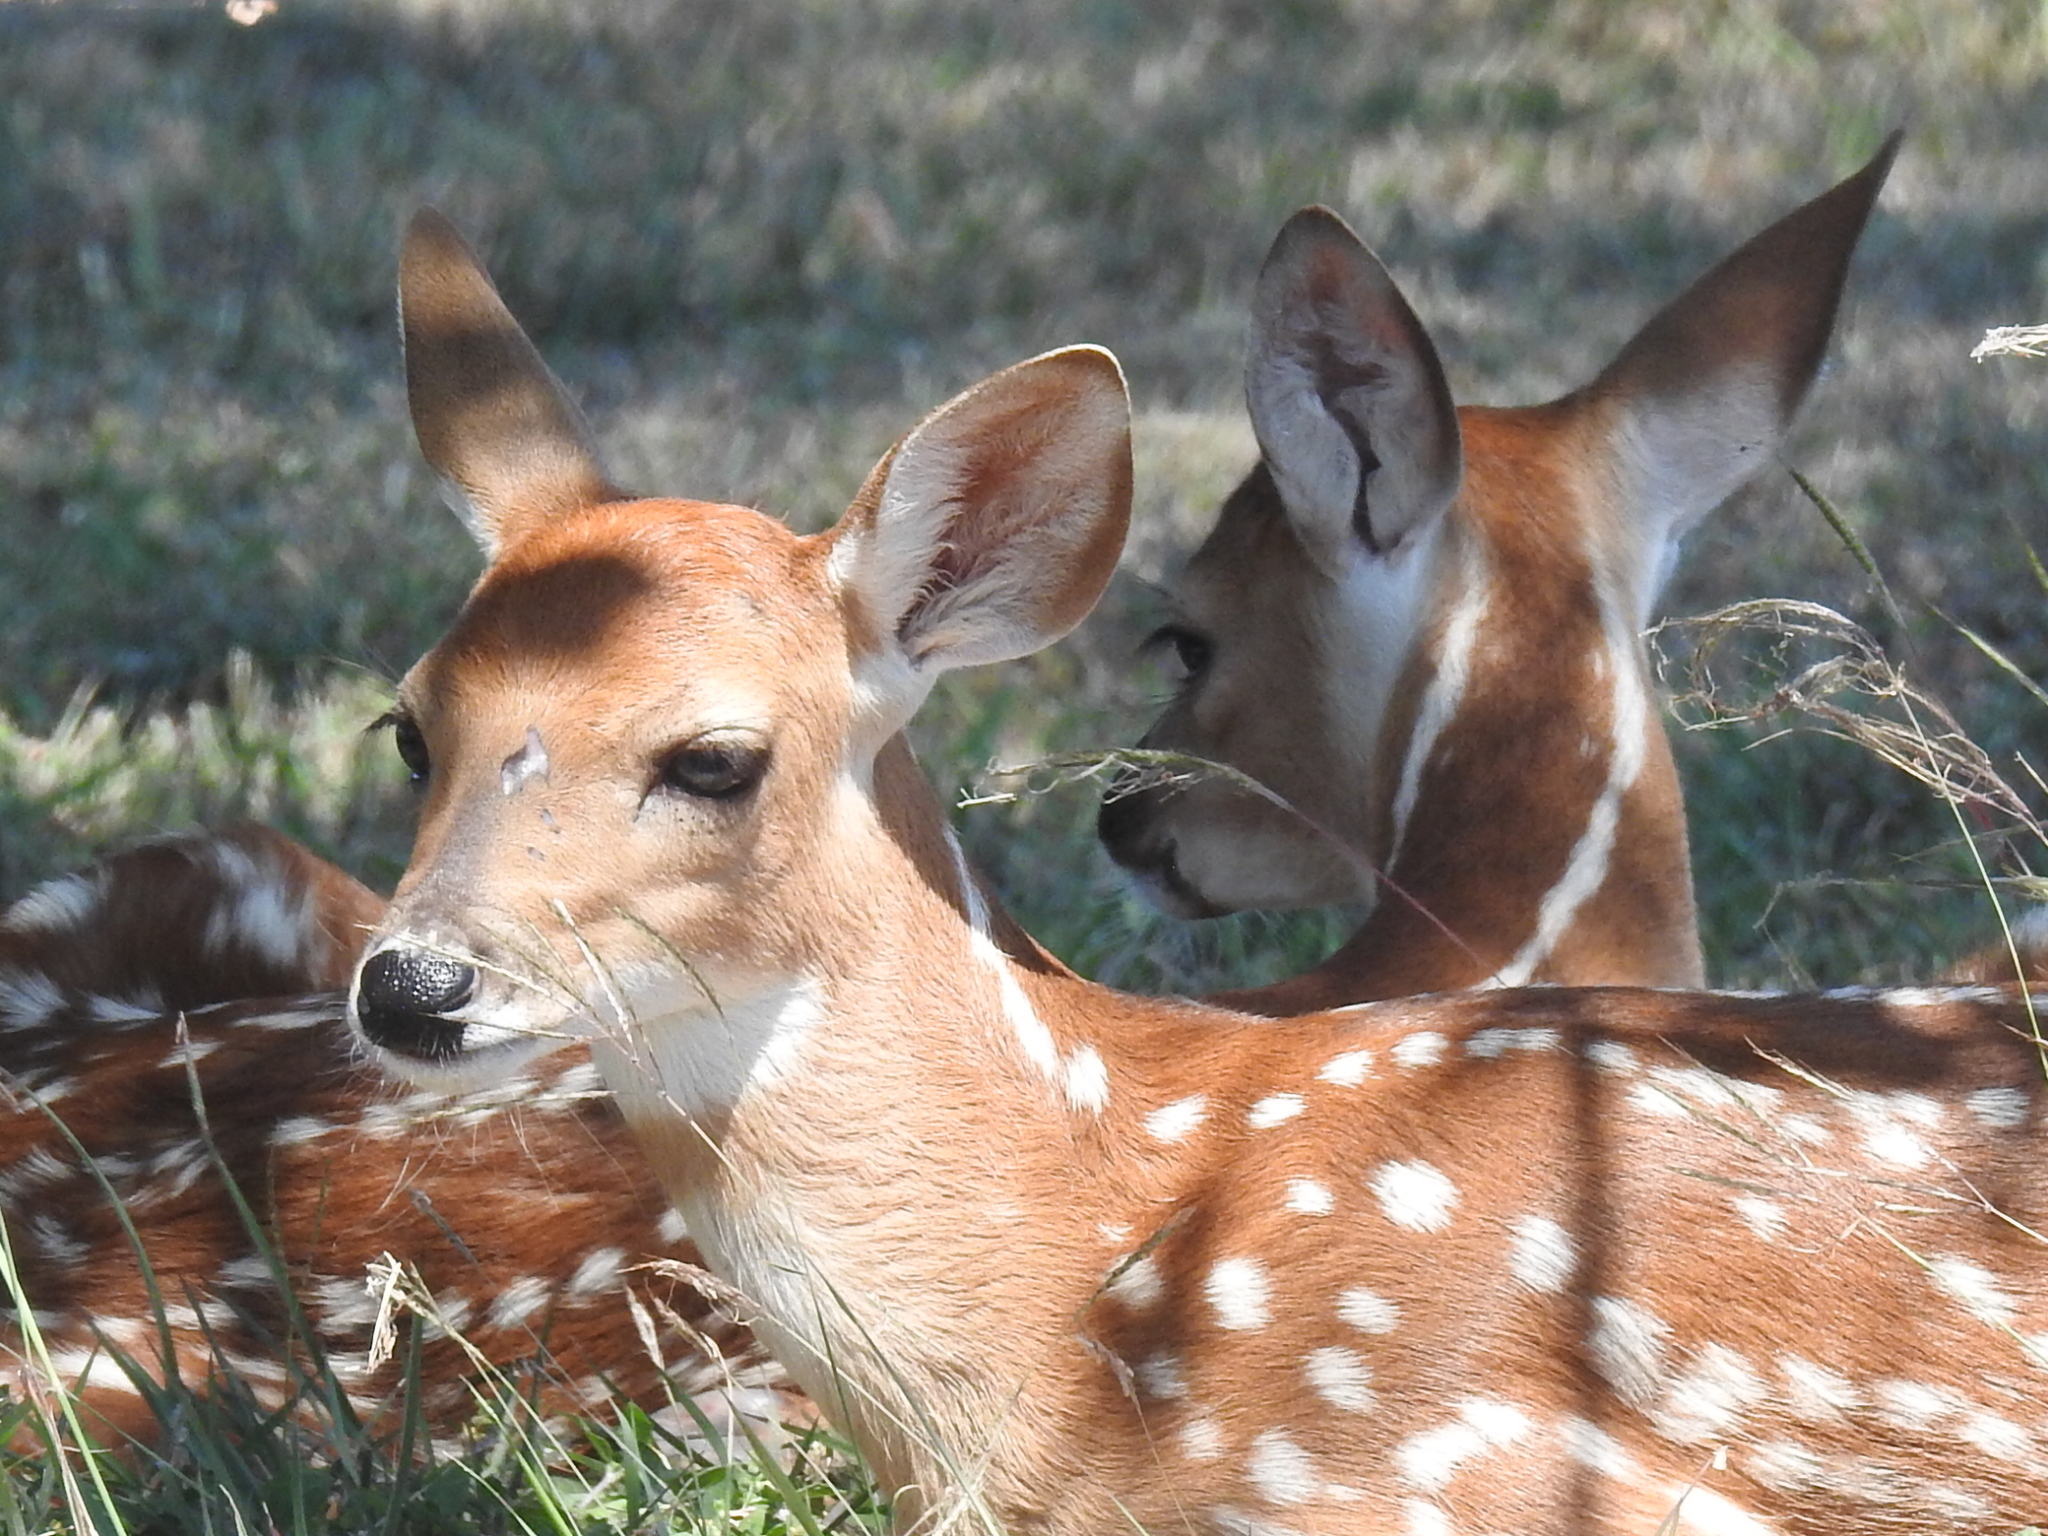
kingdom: Animalia
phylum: Chordata
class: Mammalia
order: Artiodactyla
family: Cervidae
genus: Odocoileus
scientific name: Odocoileus virginianus
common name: White-tailed deer
